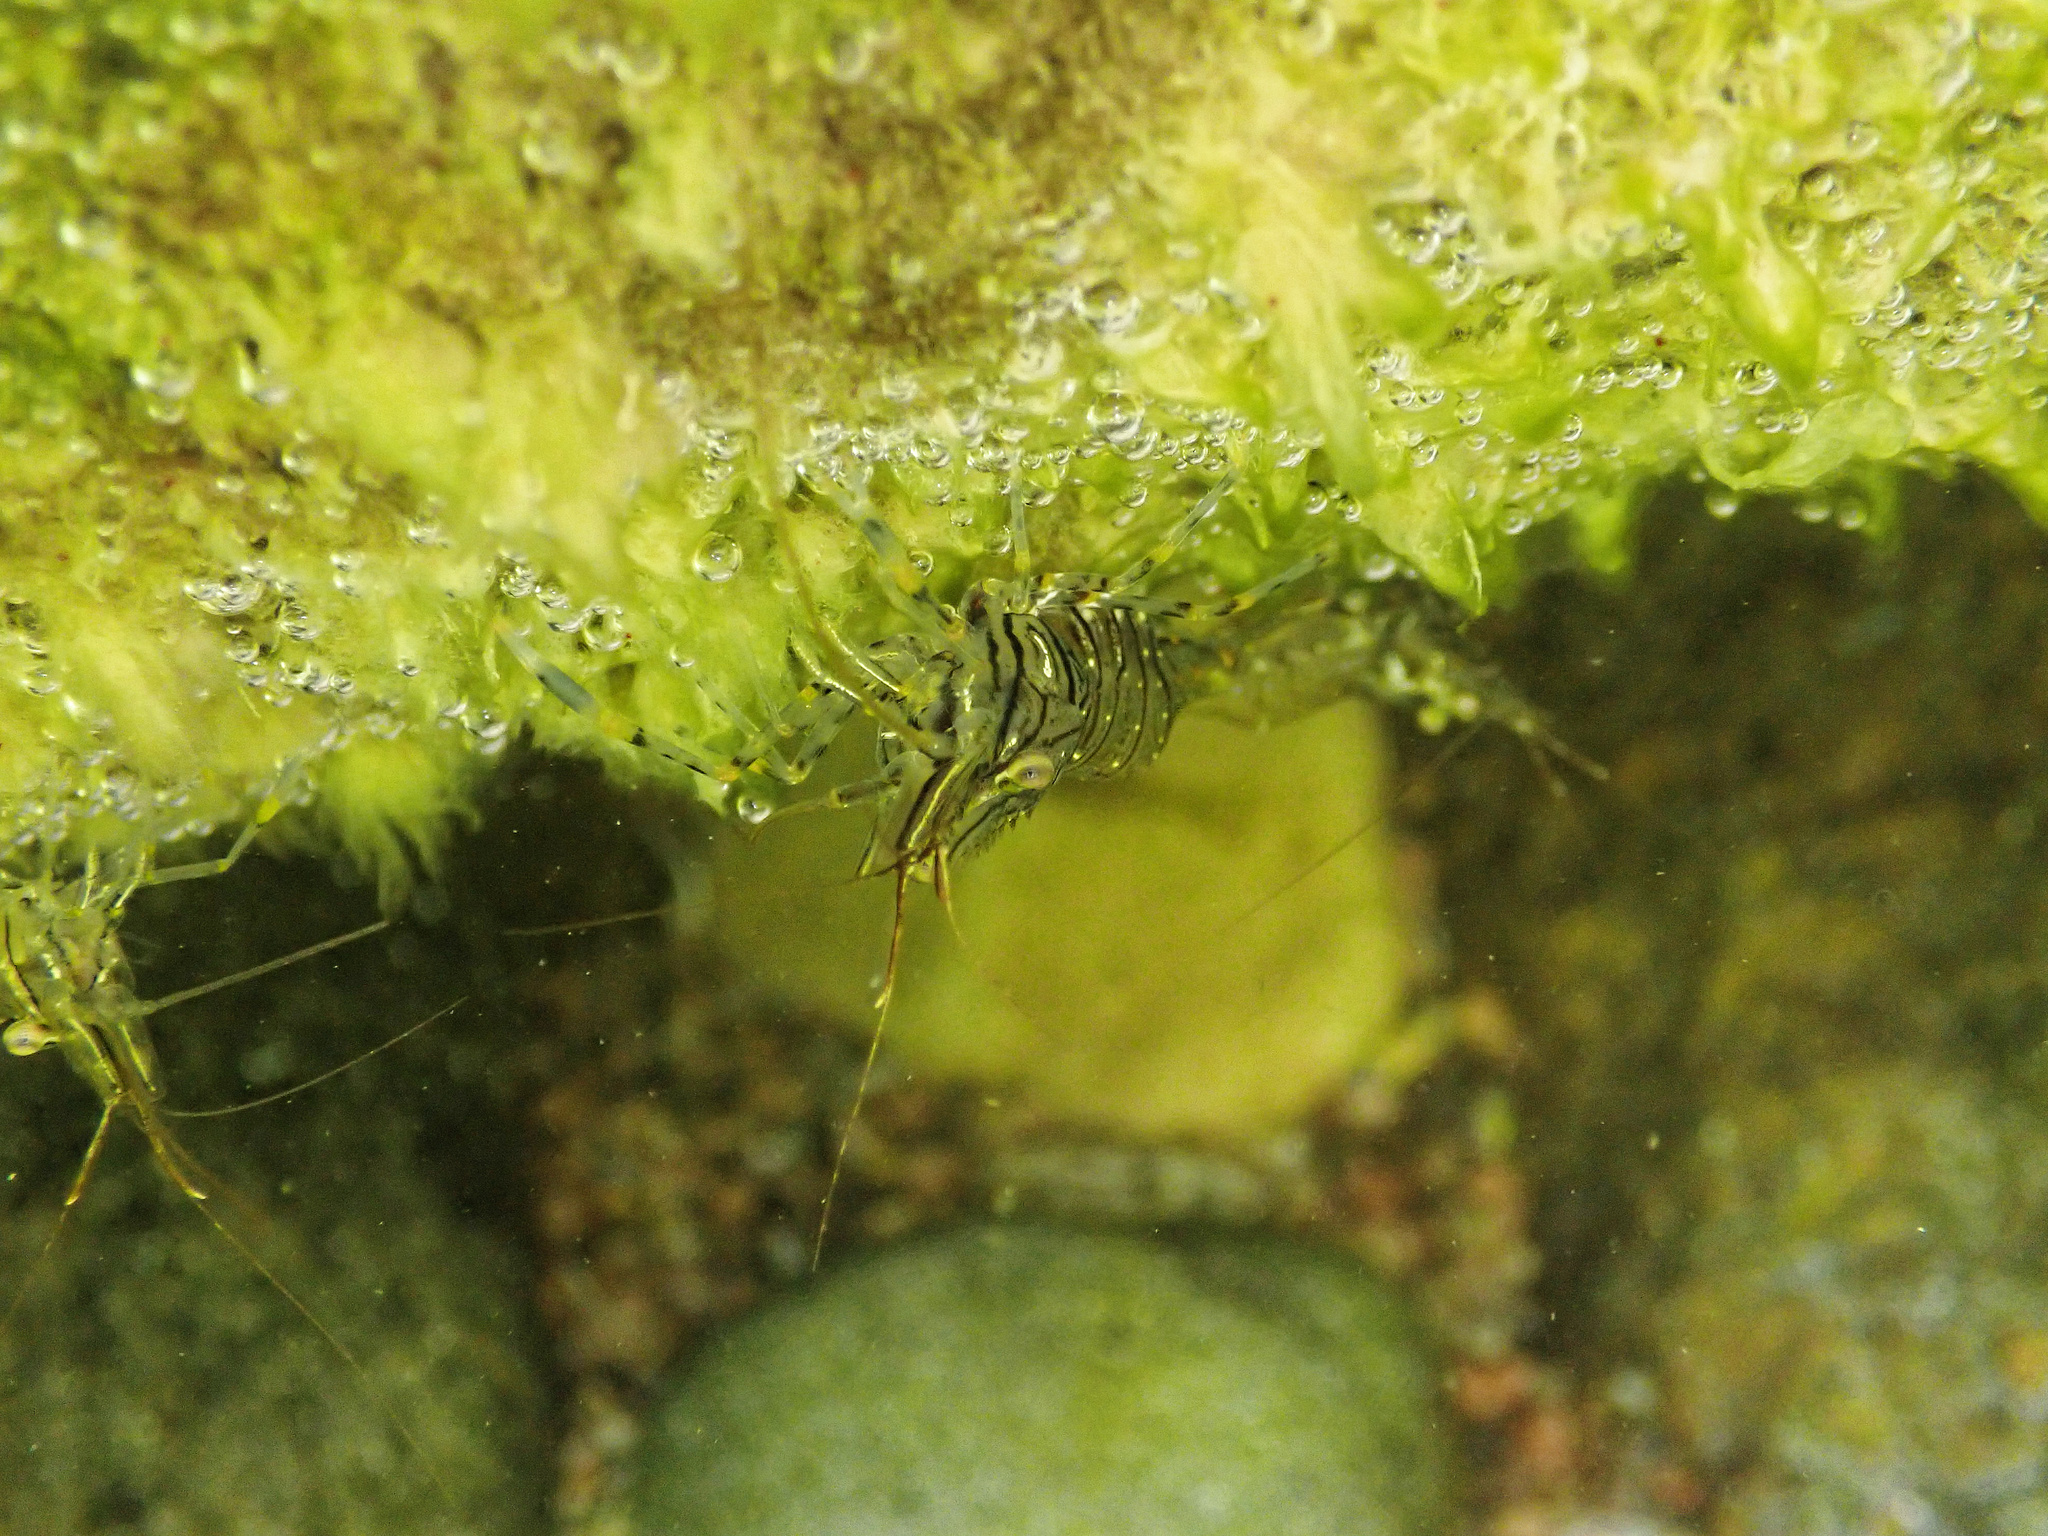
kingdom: Animalia
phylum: Arthropoda
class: Malacostraca
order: Decapoda
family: Palaemonidae
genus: Palaemon
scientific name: Palaemon elegans
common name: Grass prawm
